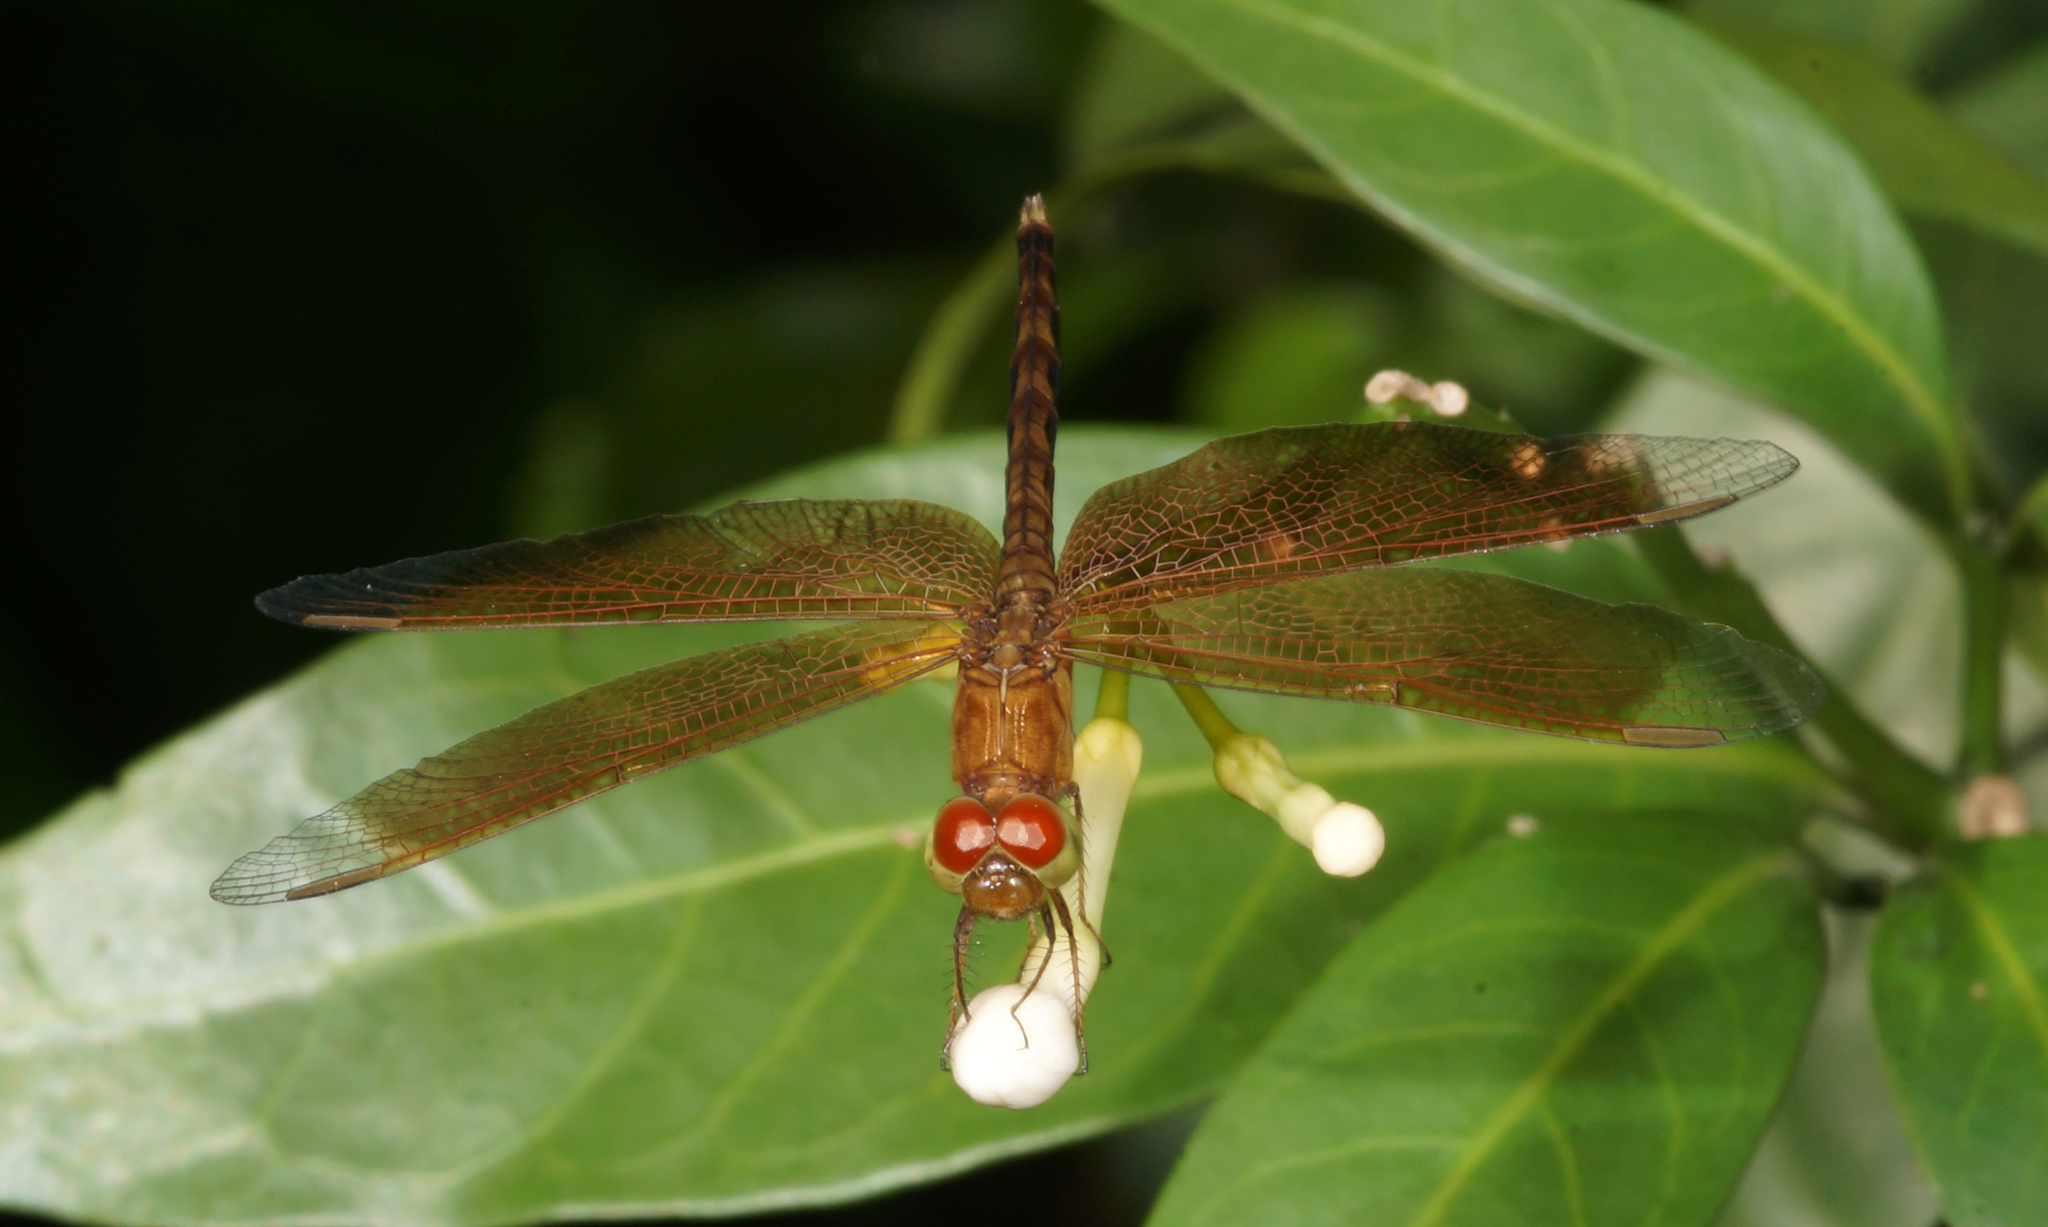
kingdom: Animalia
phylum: Arthropoda
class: Insecta
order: Odonata
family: Libellulidae
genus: Neurothemis
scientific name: Neurothemis fluctuans
